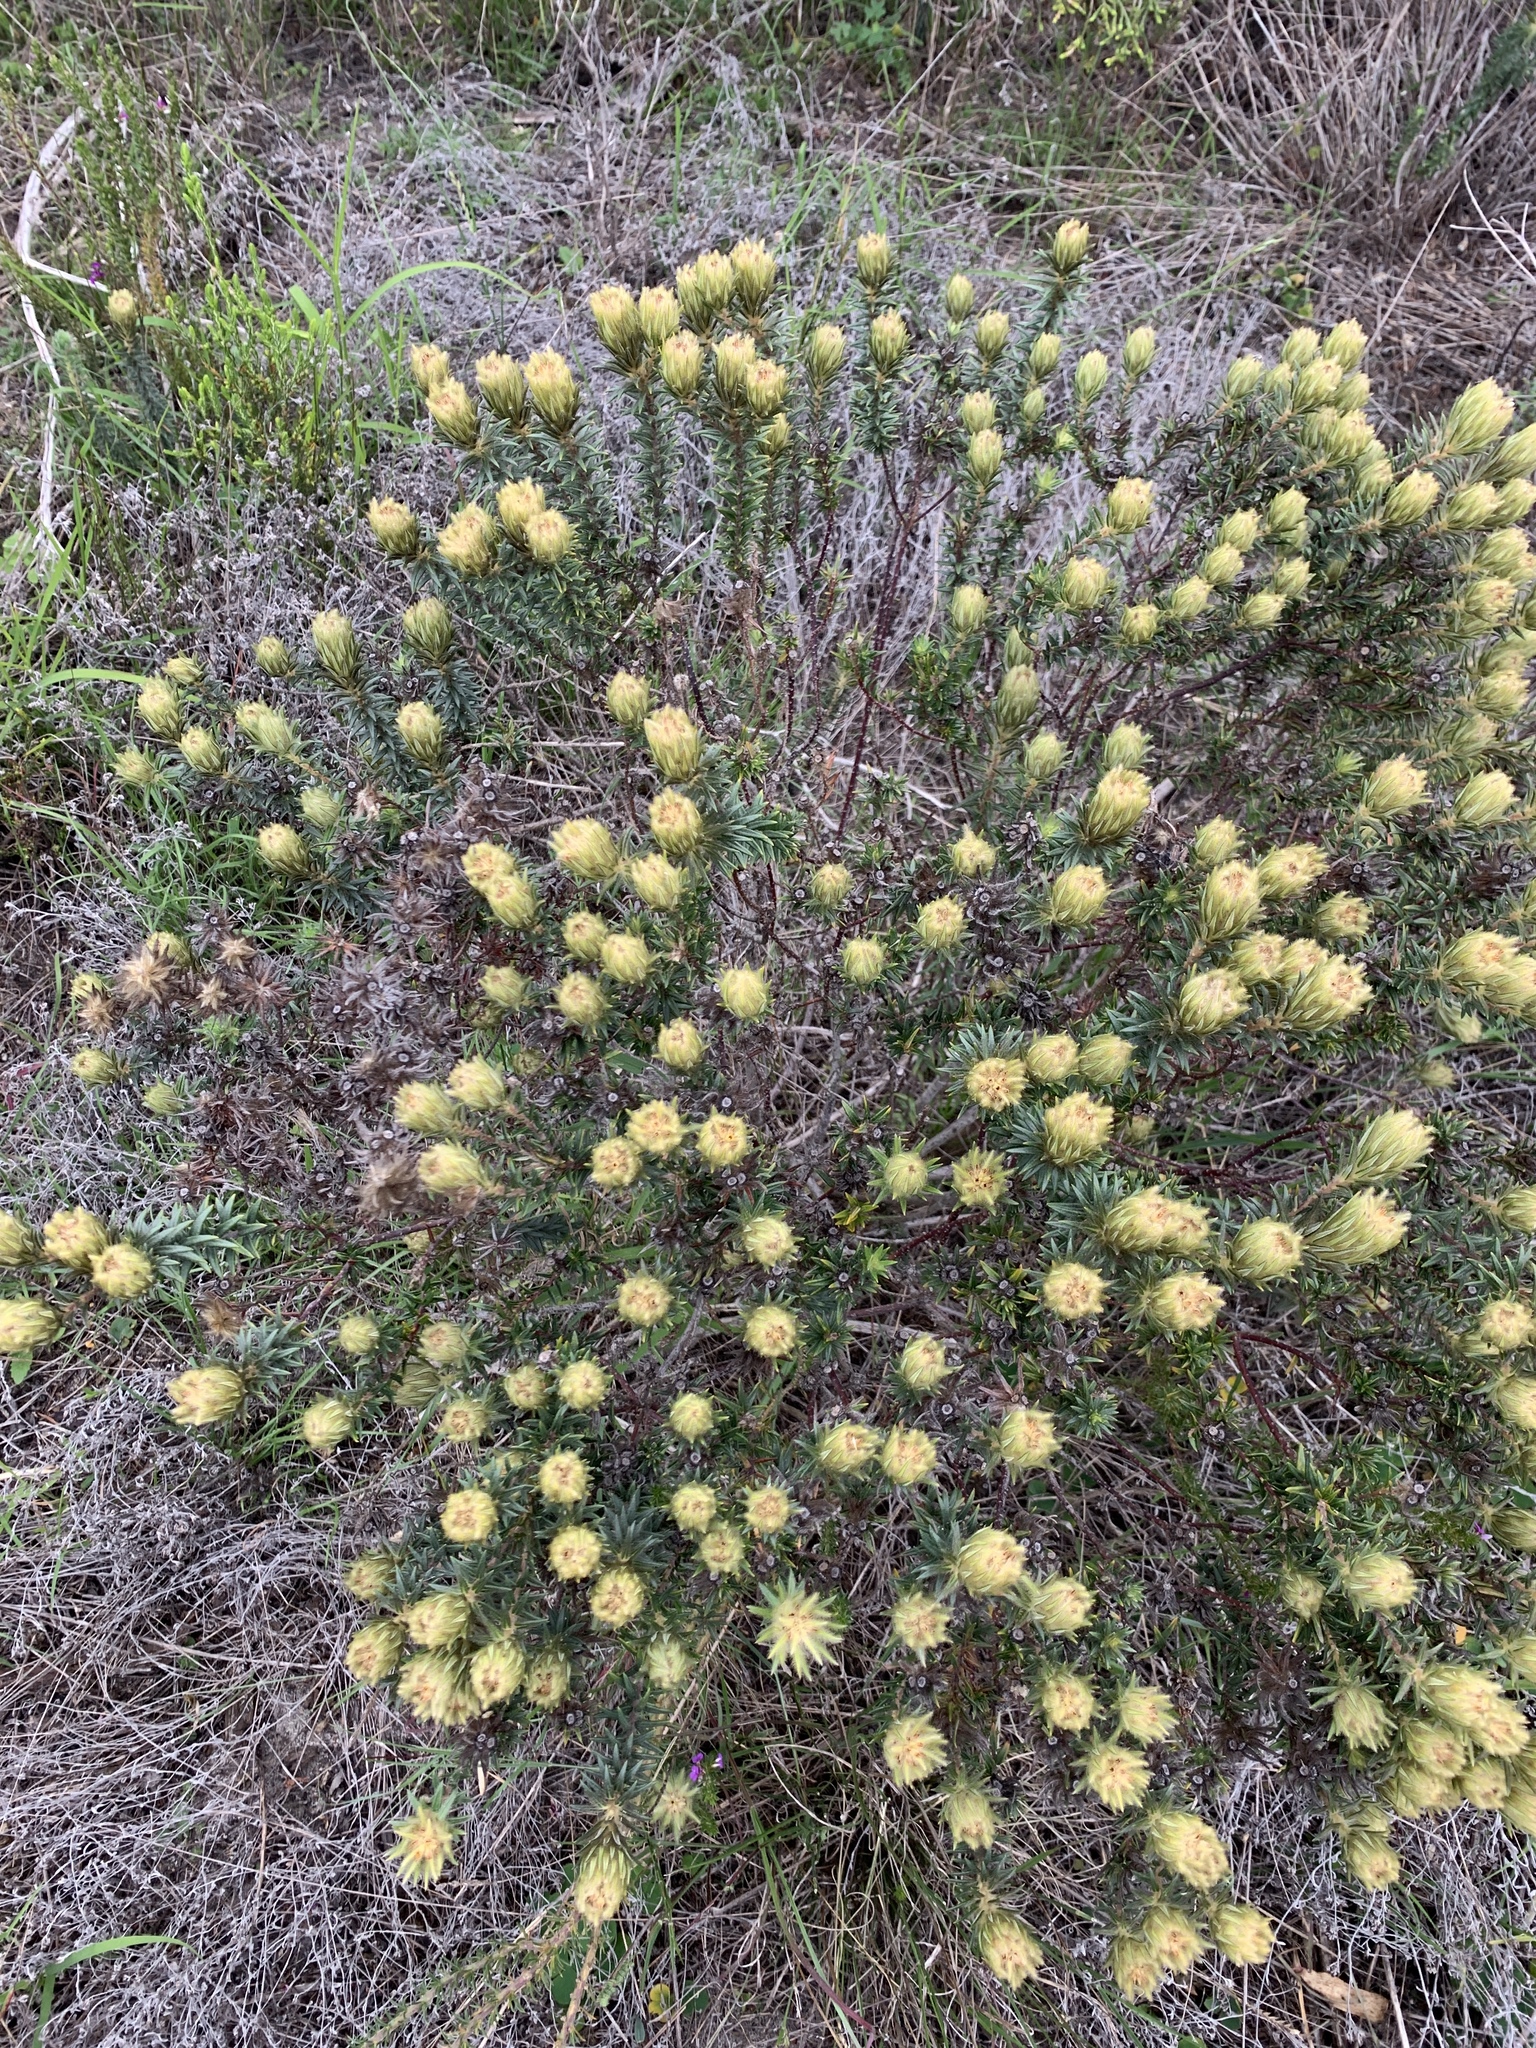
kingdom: Plantae
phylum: Tracheophyta
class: Magnoliopsida
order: Rosales
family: Rhamnaceae
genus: Phylica
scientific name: Phylica pubescens
